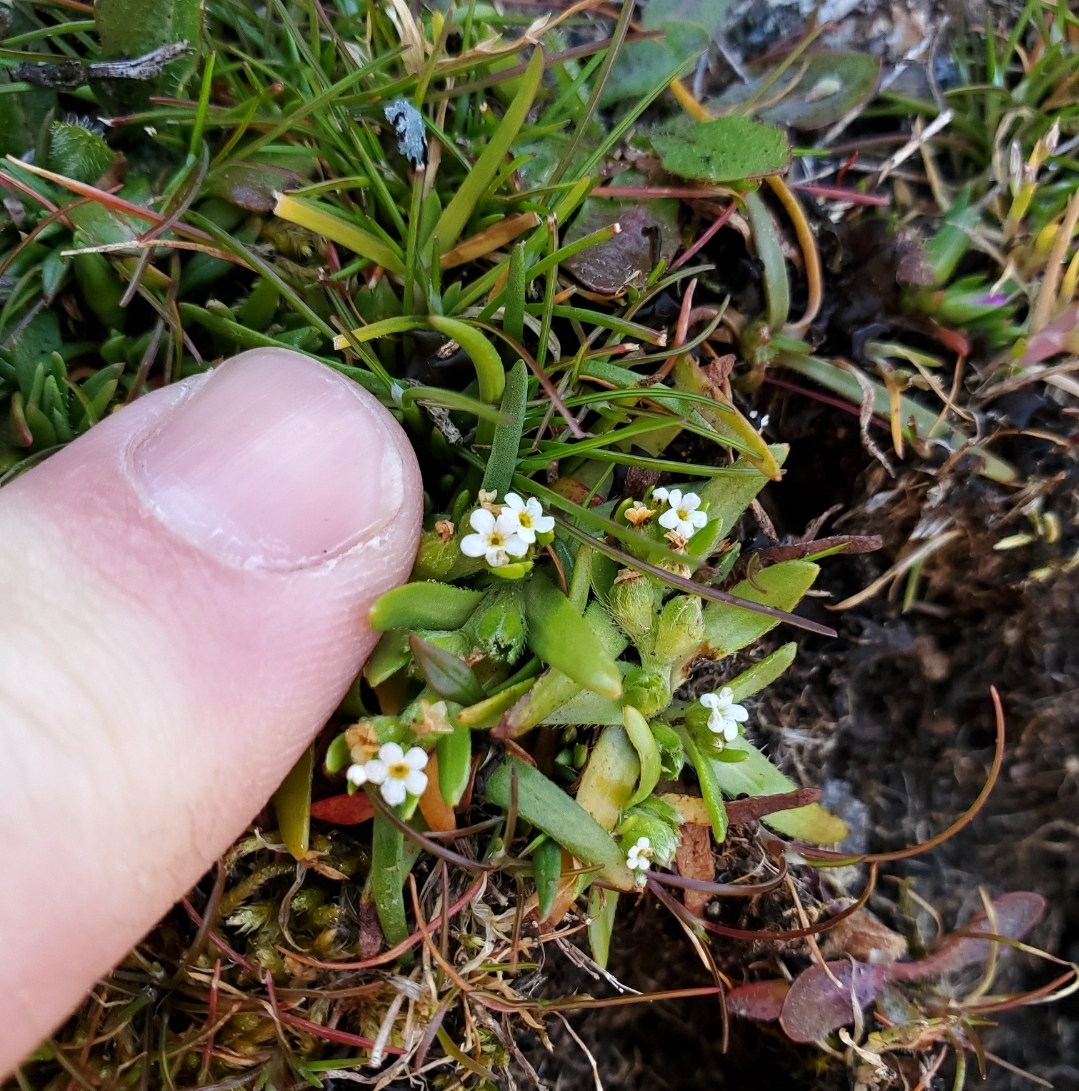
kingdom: Plantae
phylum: Tracheophyta
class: Magnoliopsida
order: Boraginales
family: Boraginaceae
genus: Plagiobothrys
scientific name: Plagiobothrys scouleri
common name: White forget-me-not
